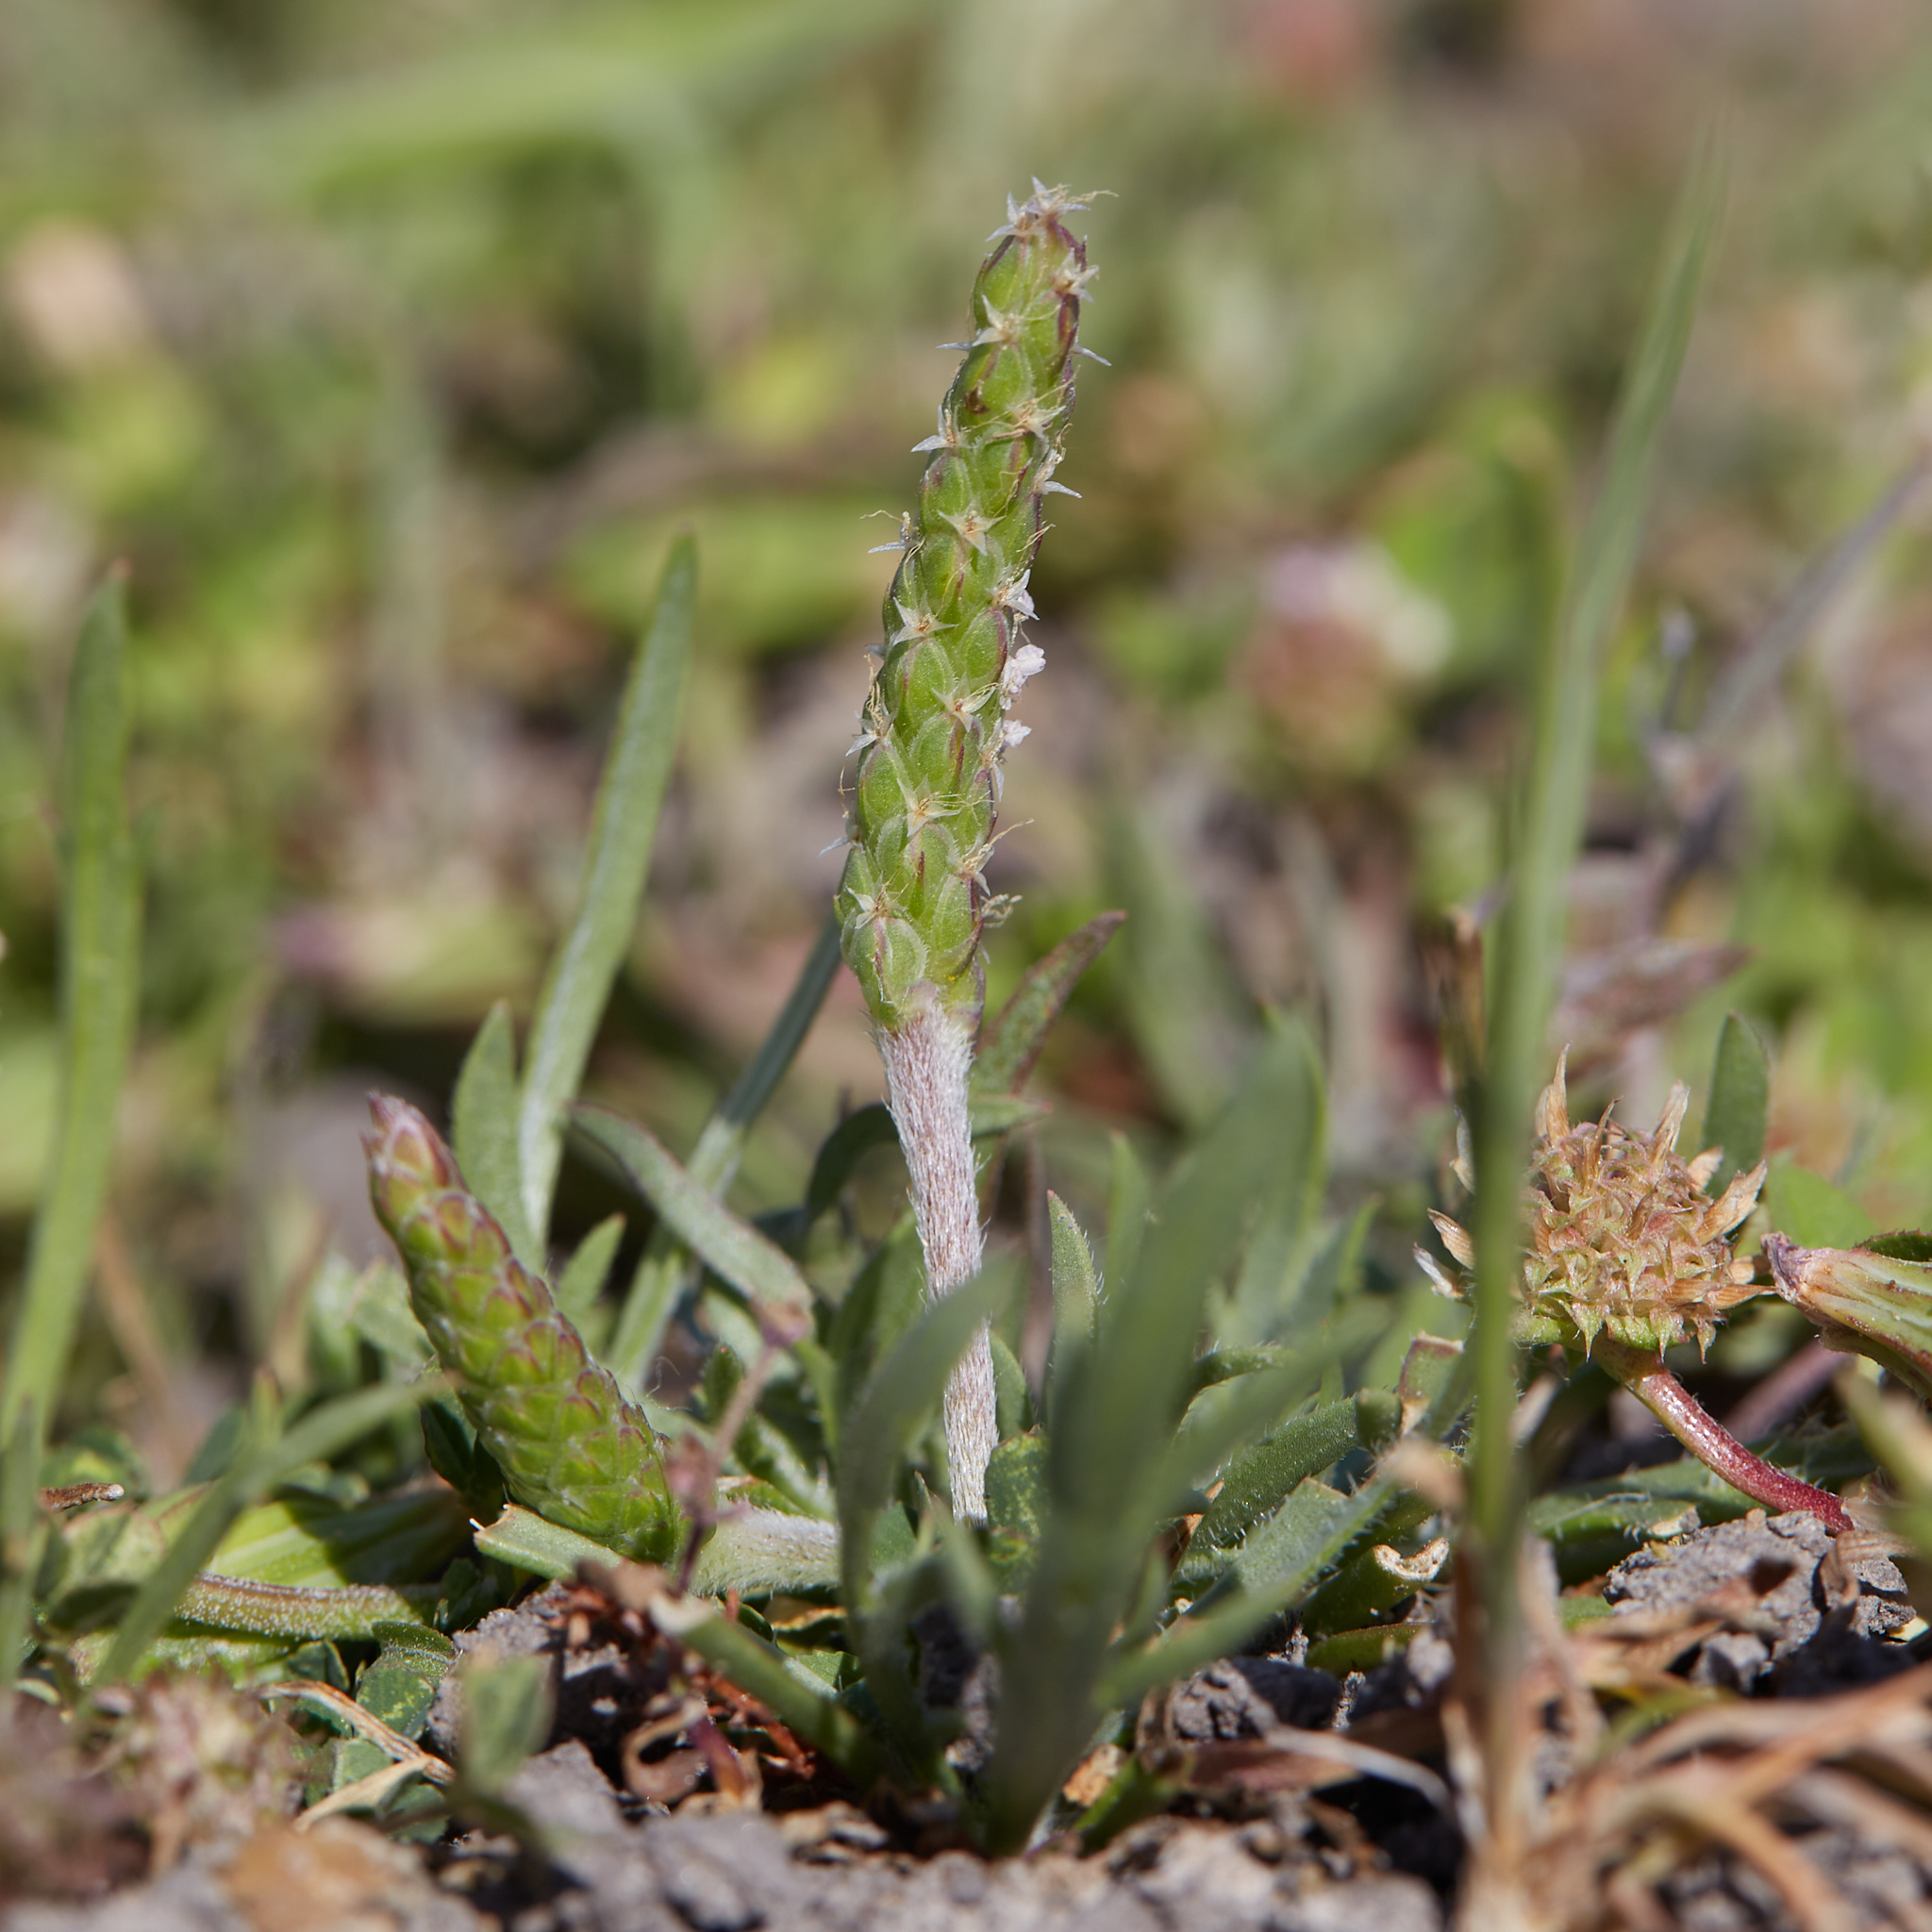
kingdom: Plantae
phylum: Tracheophyta
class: Magnoliopsida
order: Lamiales
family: Plantaginaceae
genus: Plantago
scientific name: Plantago coronopus
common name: Buck's-horn plantain
